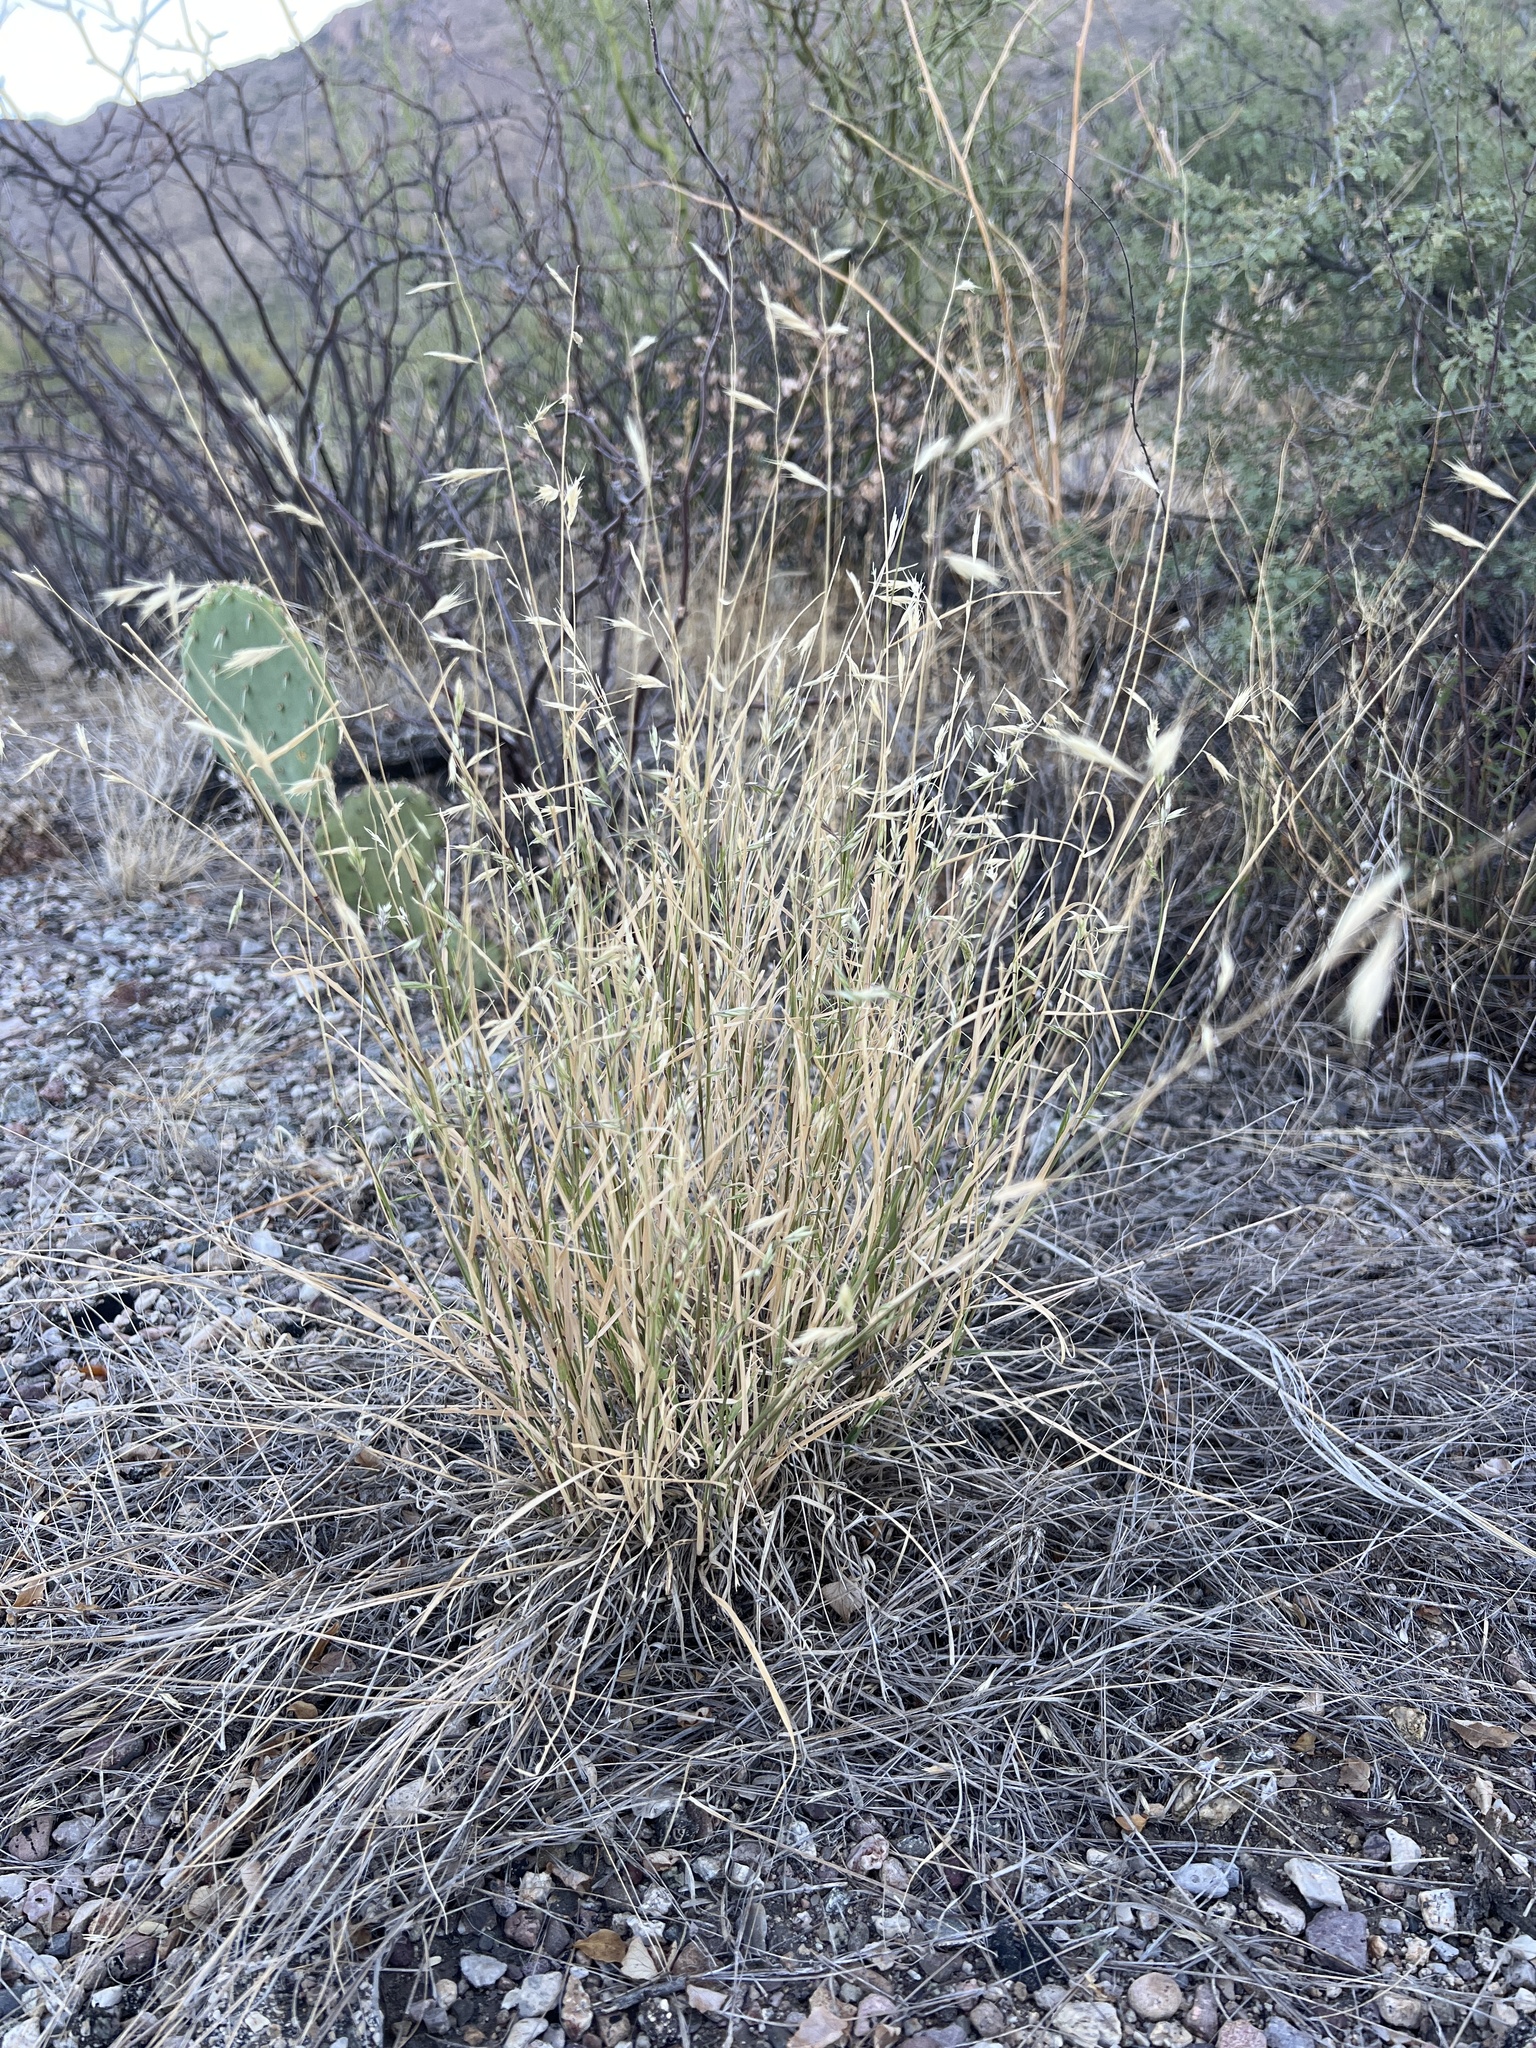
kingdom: Plantae
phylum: Tracheophyta
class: Liliopsida
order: Poales
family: Poaceae
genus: Bouteloua
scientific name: Bouteloua repens
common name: Slender grama
